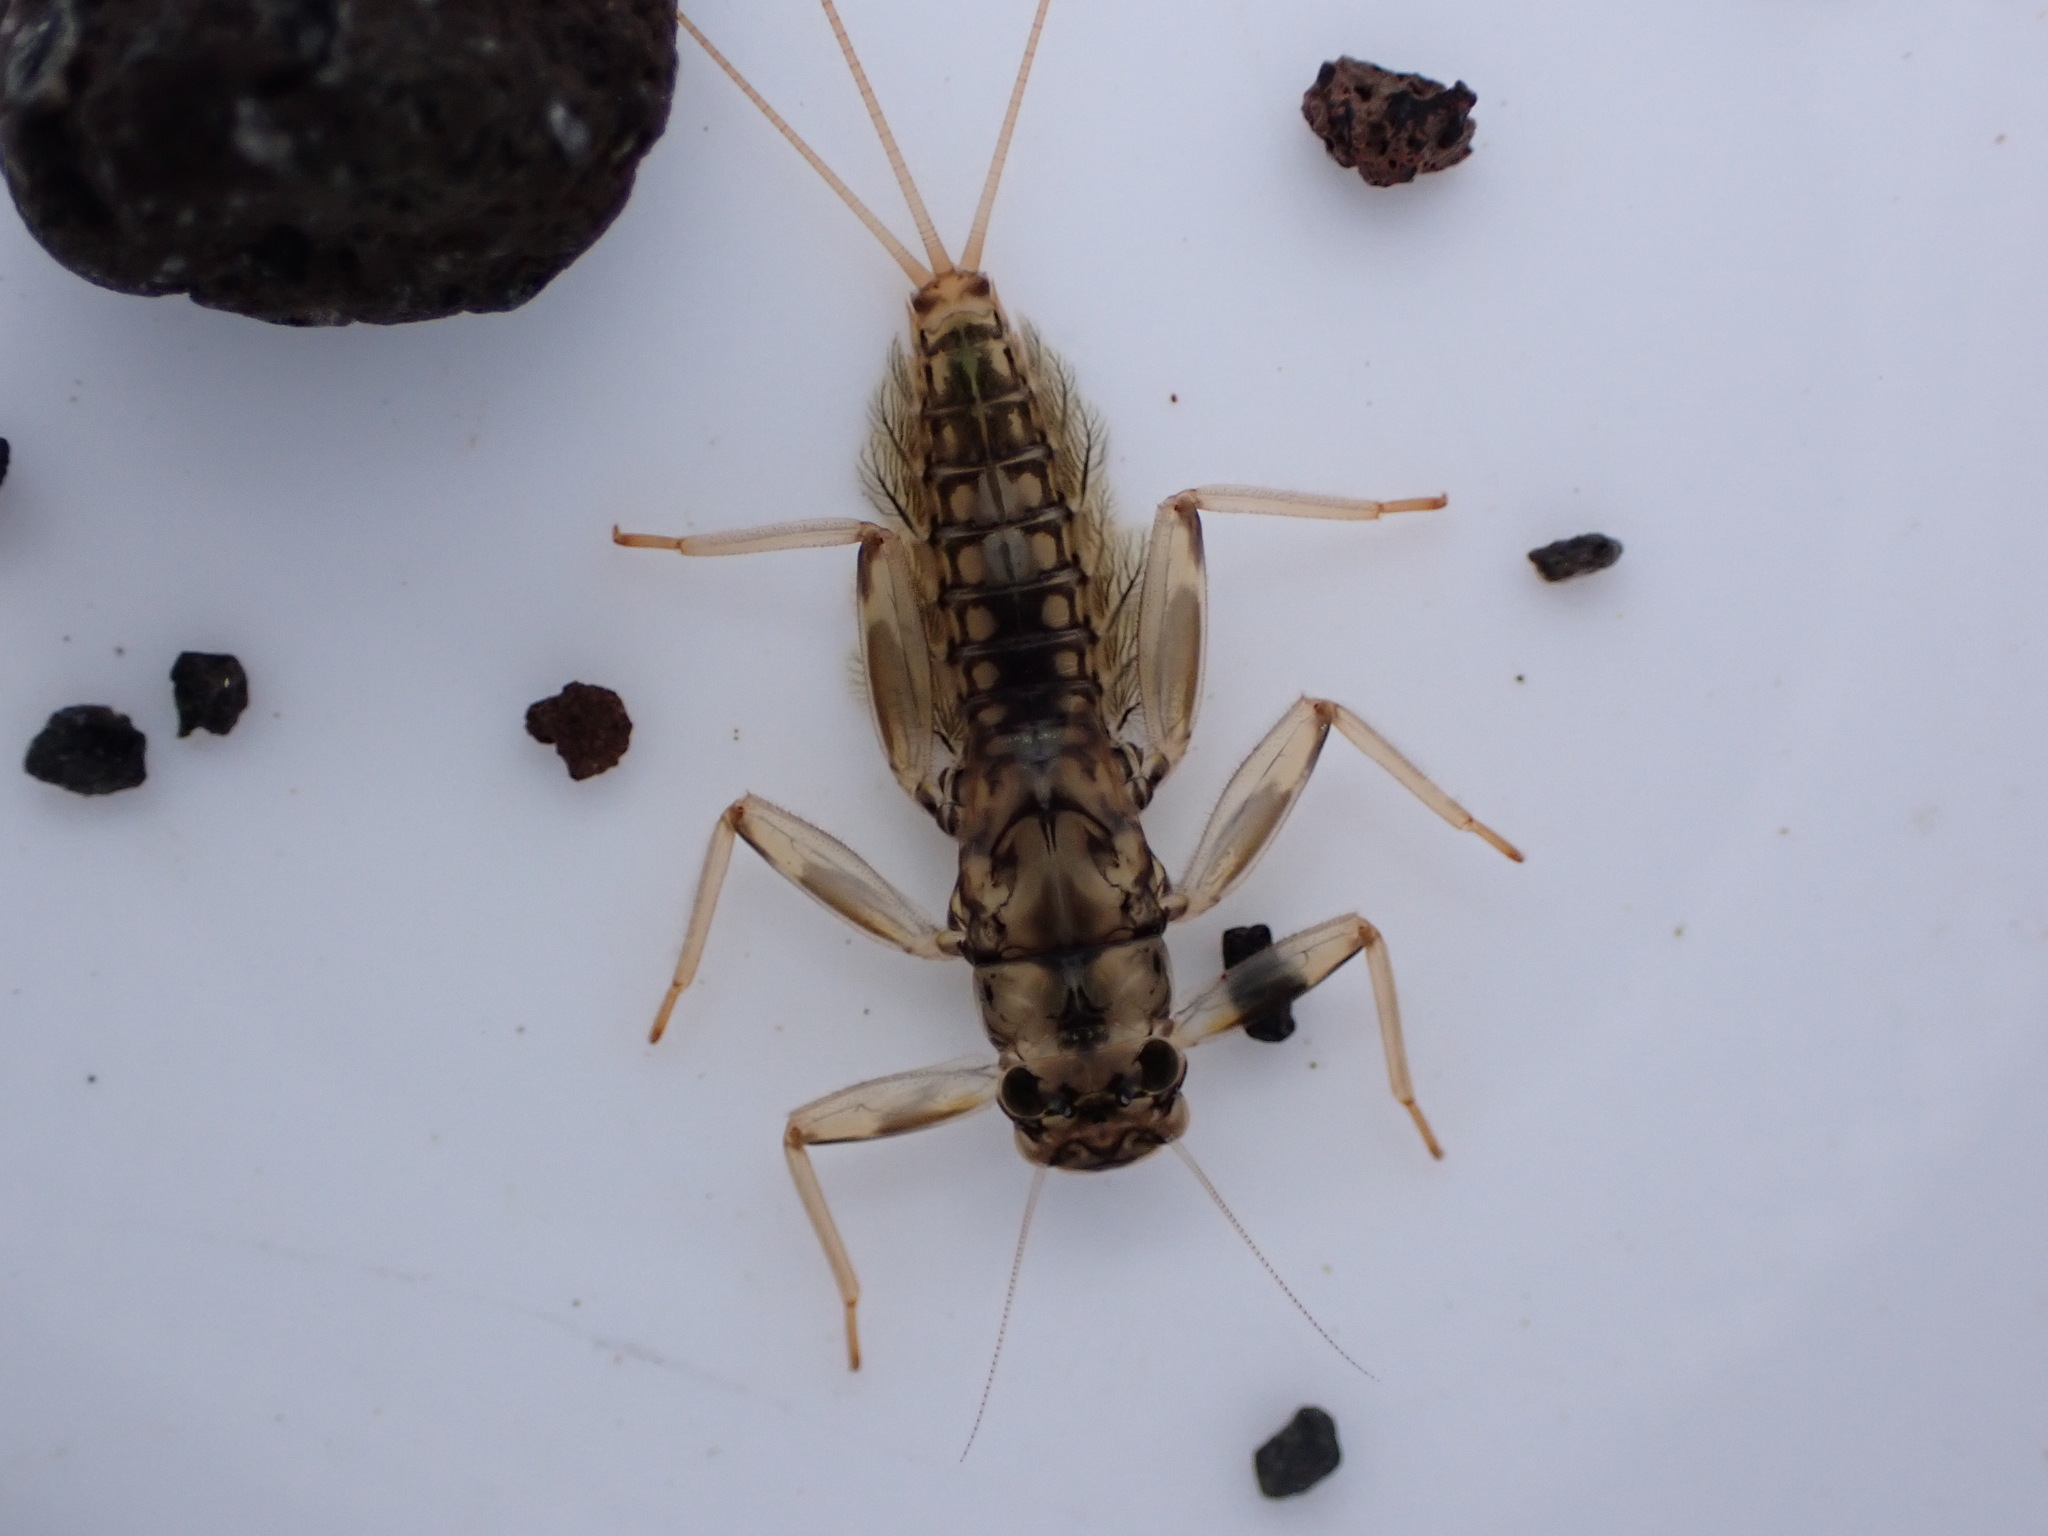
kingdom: Animalia
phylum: Arthropoda
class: Insecta
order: Ephemeroptera
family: Leptophlebiidae
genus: Deleatidium
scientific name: Deleatidium magnum
